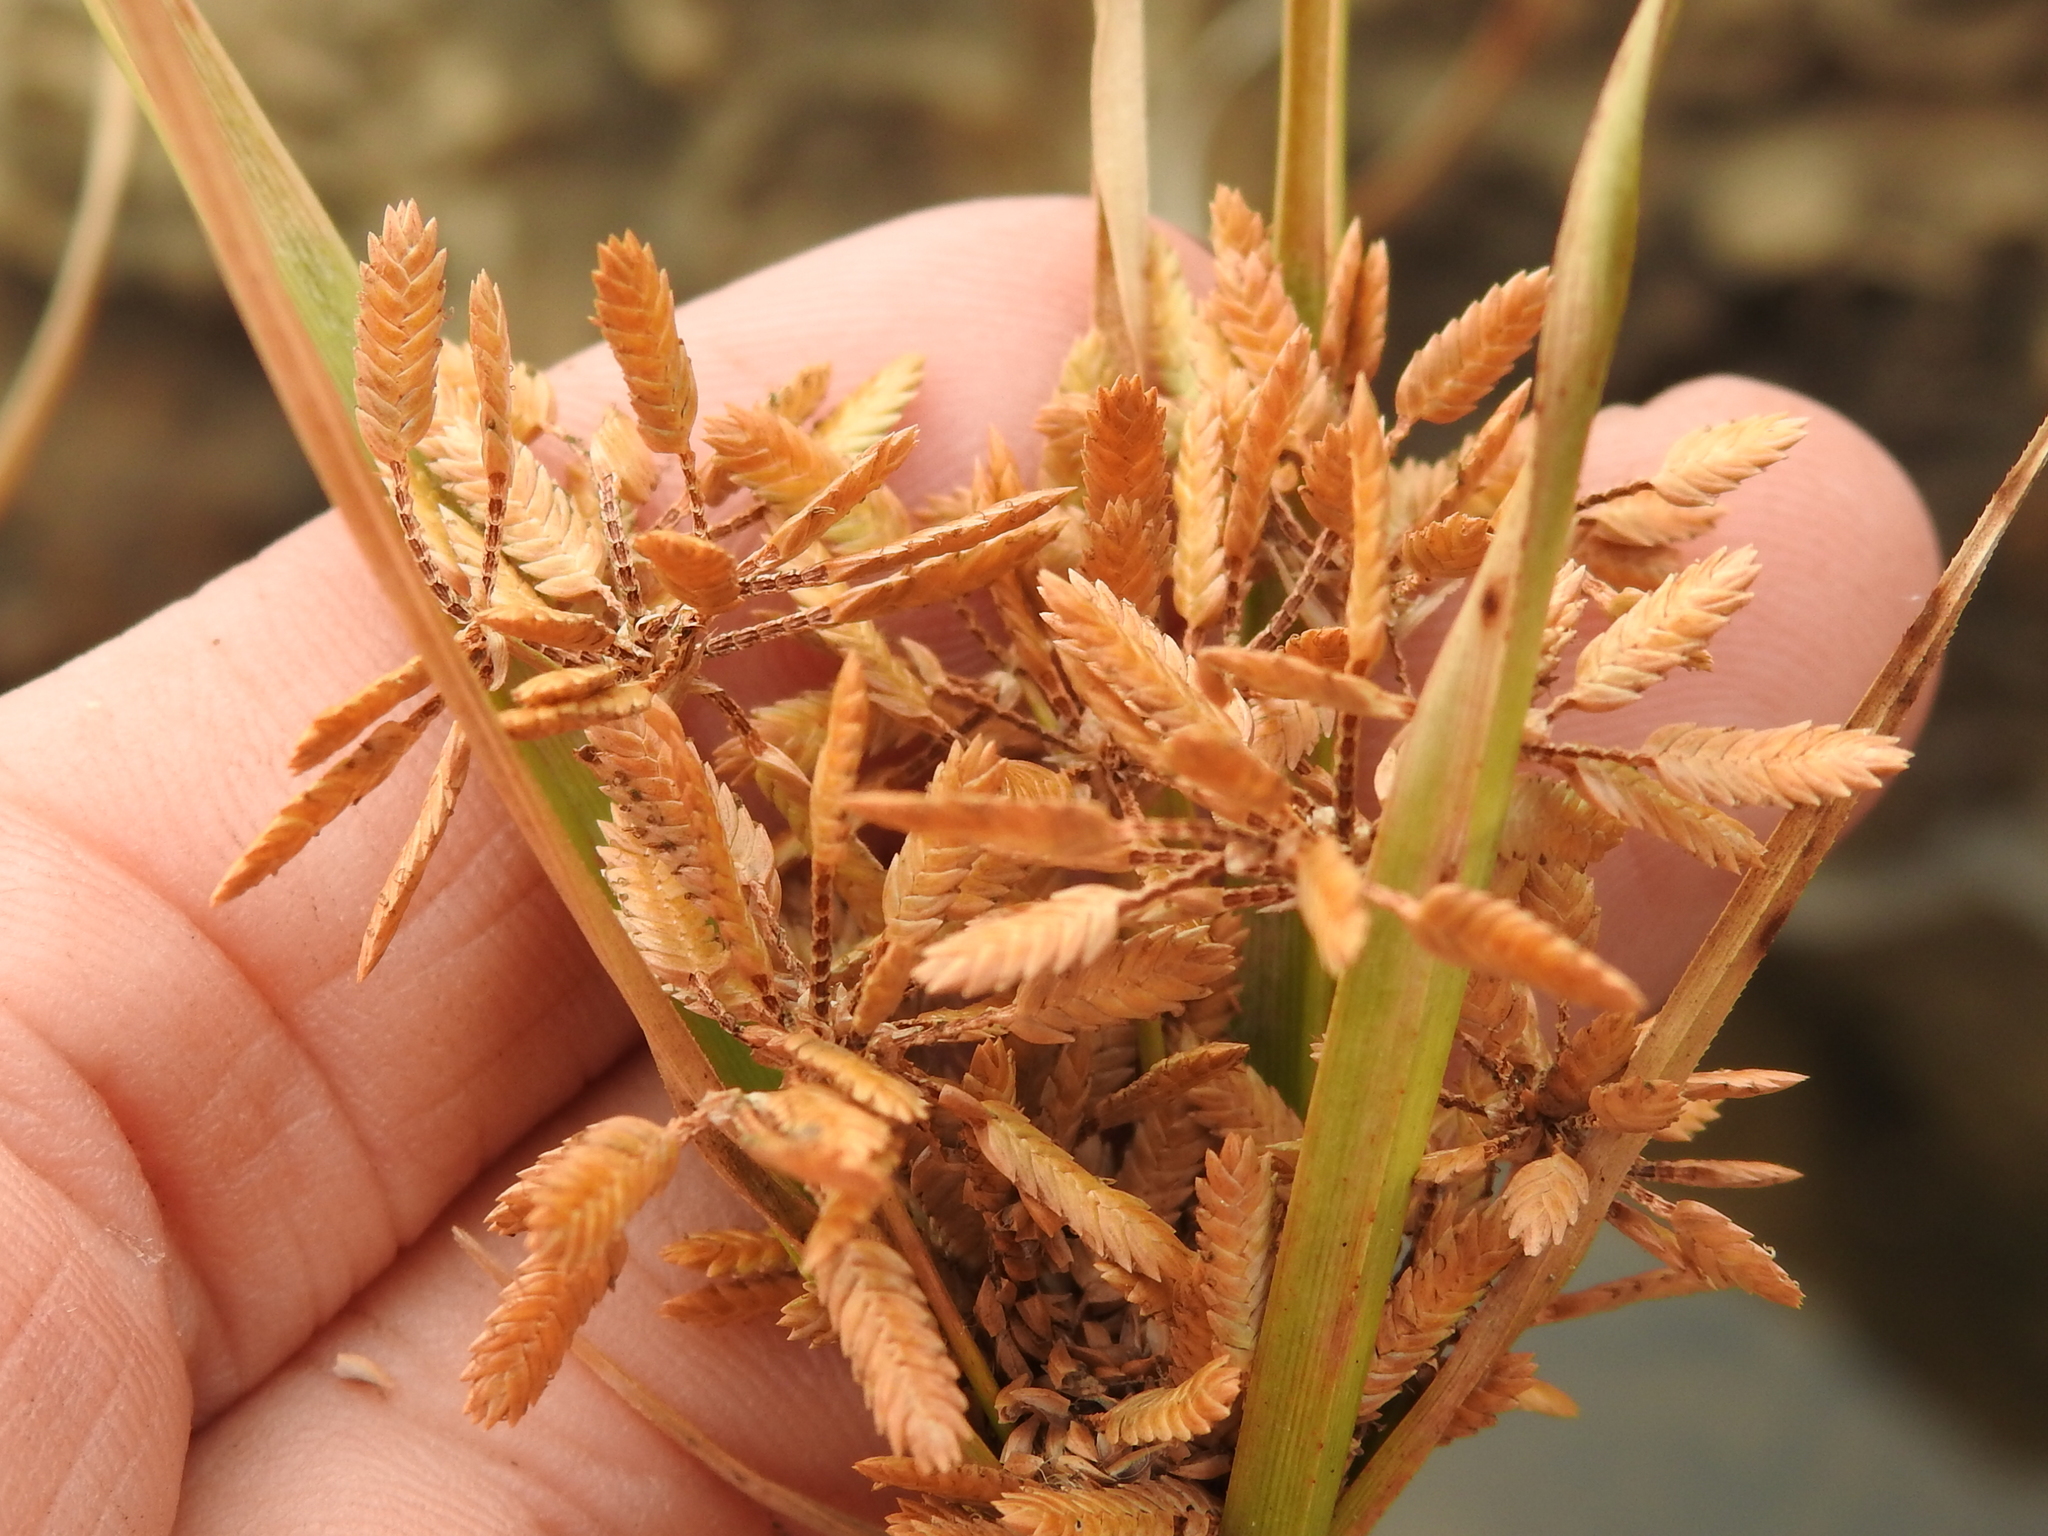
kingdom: Plantae
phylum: Tracheophyta
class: Liliopsida
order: Poales
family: Cyperaceae
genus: Cyperus
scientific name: Cyperus ochraceus
